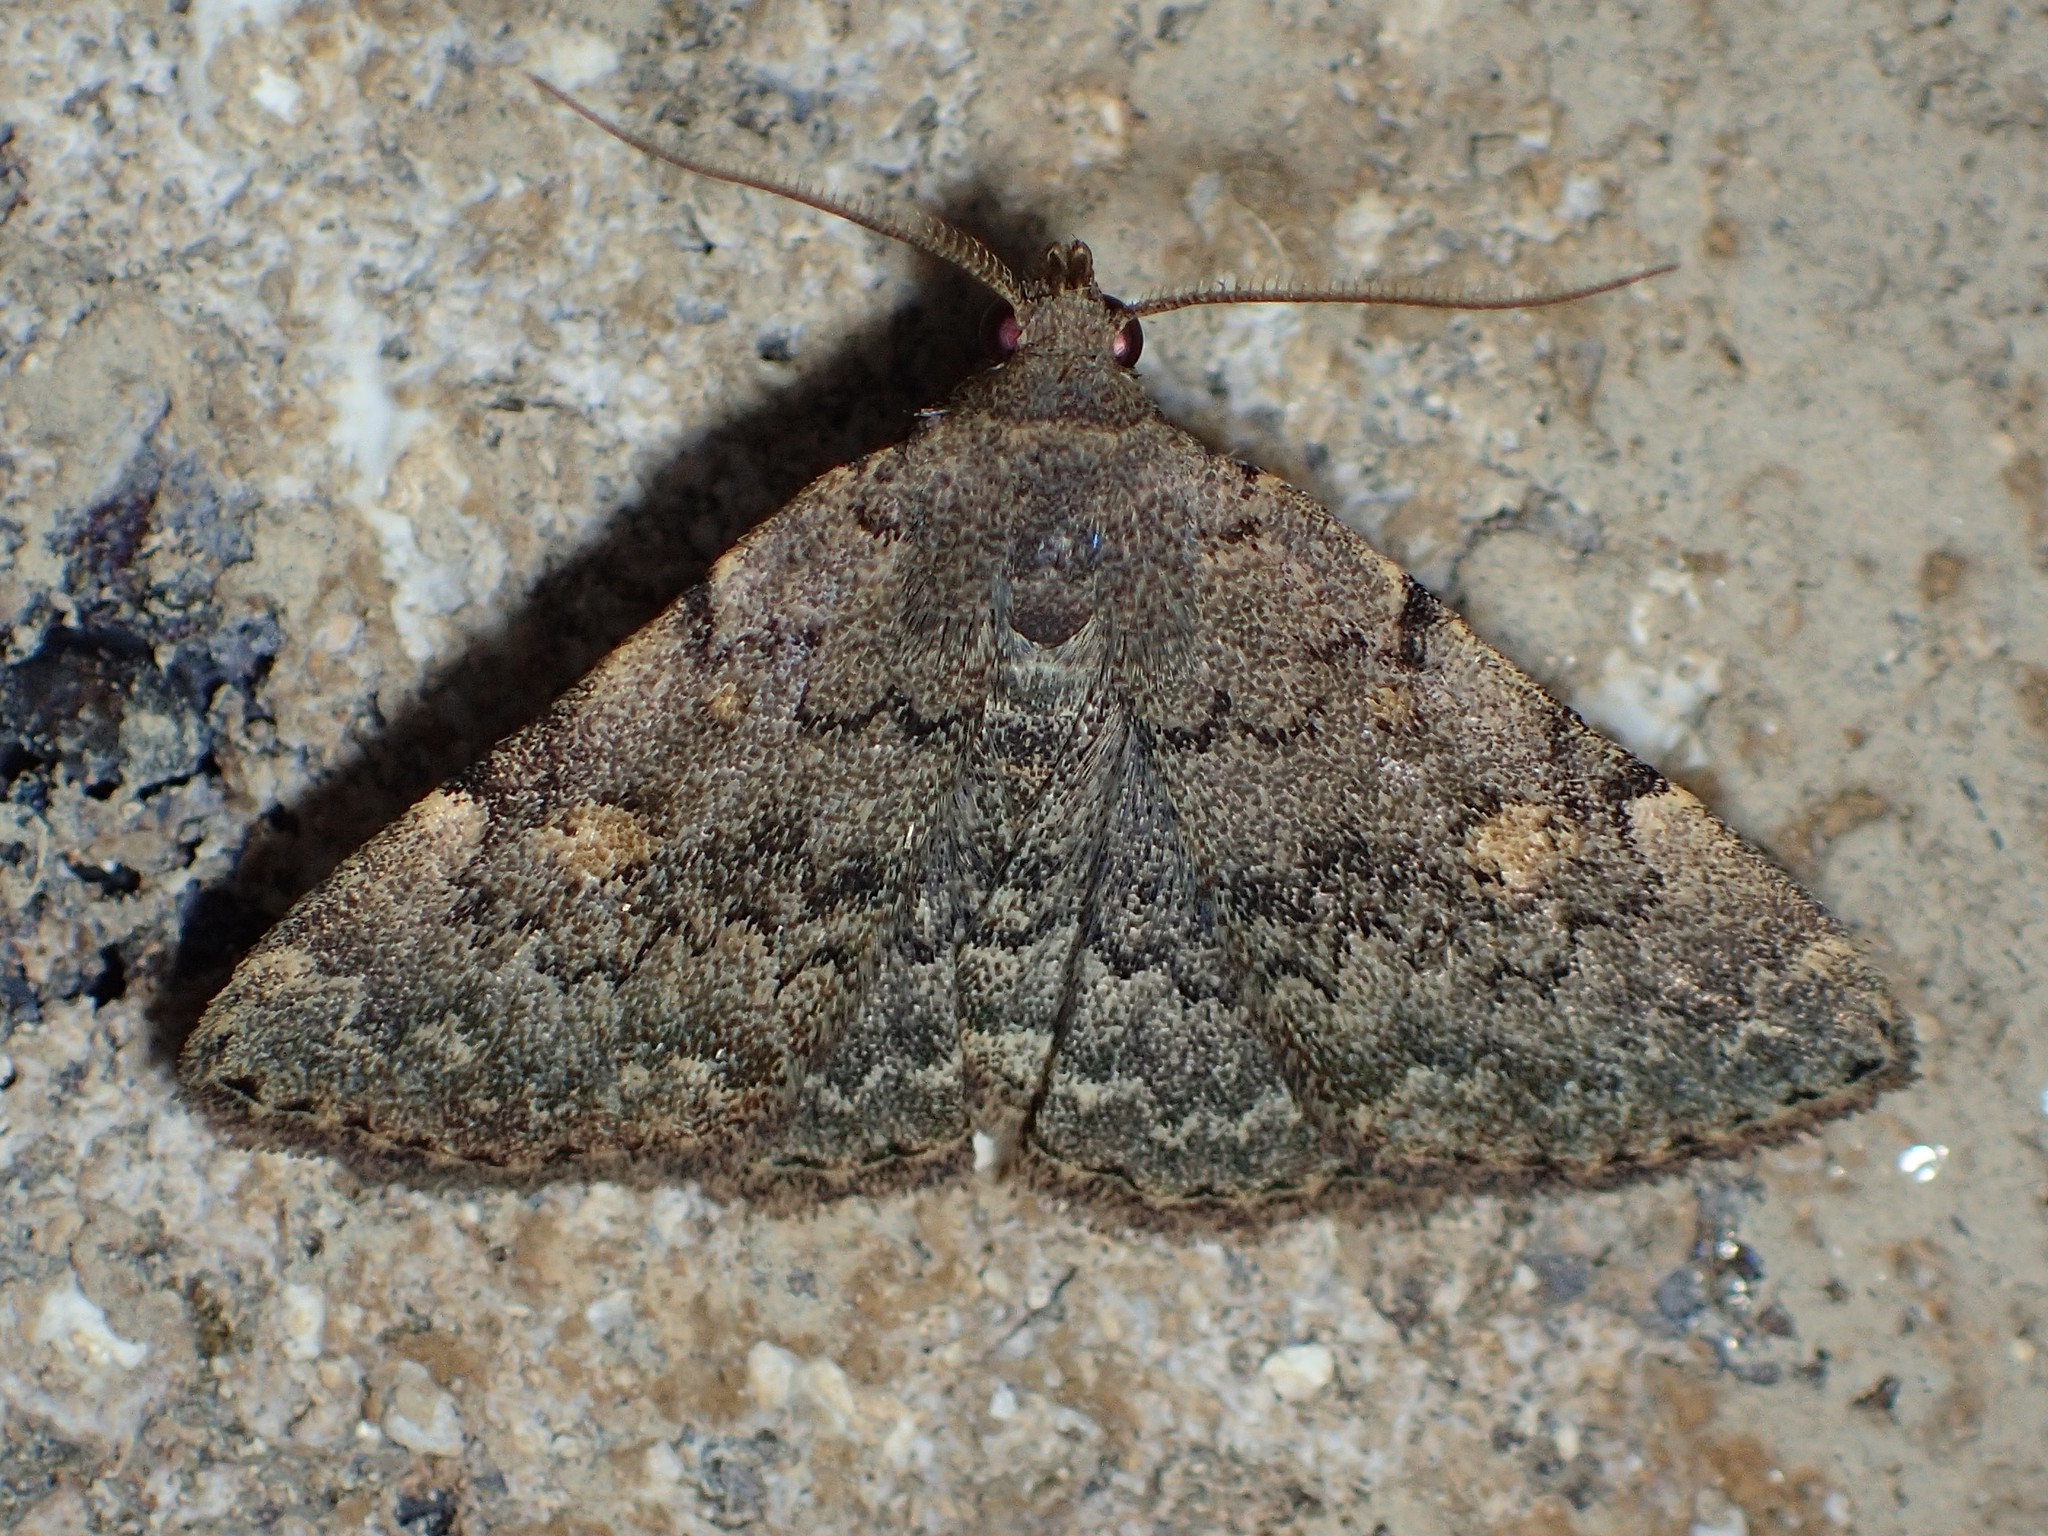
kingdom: Animalia
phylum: Arthropoda
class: Insecta
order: Lepidoptera
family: Erebidae
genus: Idia
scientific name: Idia aemula
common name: Common idia moth
